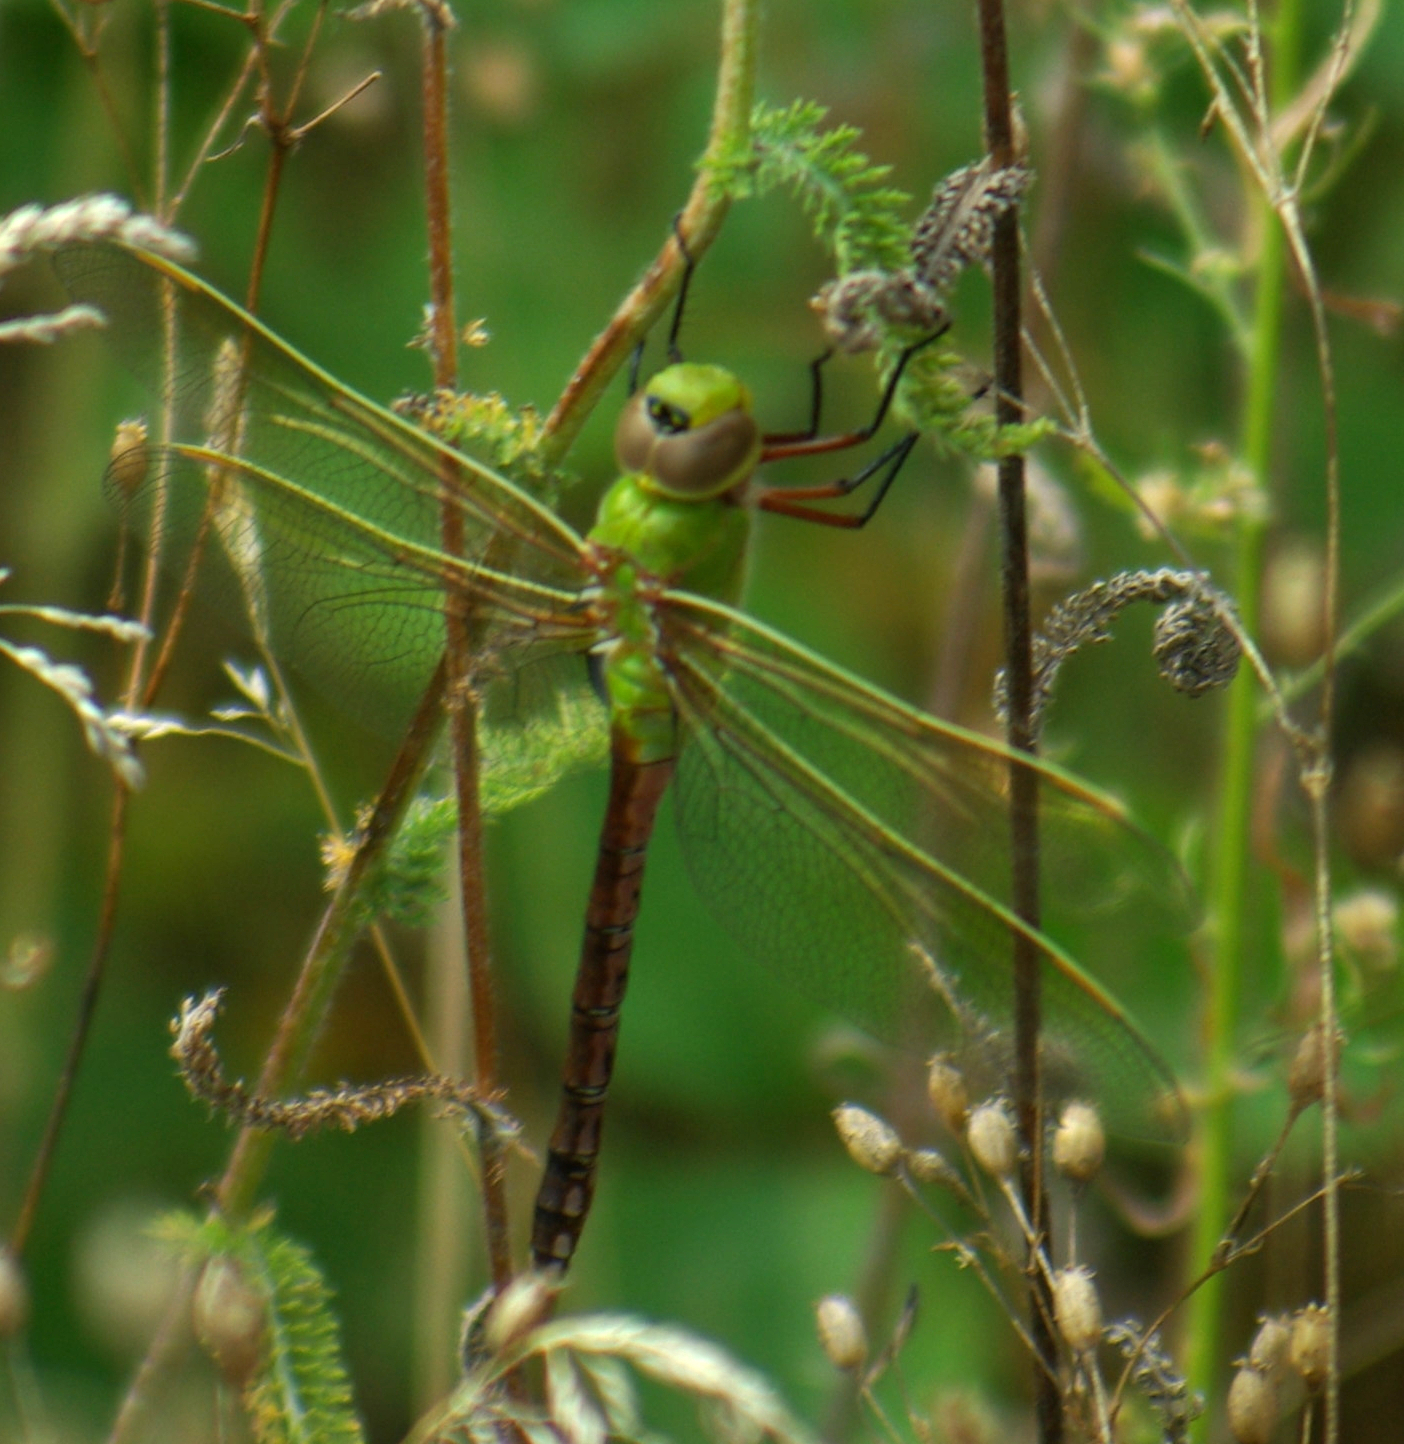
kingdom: Animalia
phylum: Arthropoda
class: Insecta
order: Odonata
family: Aeshnidae
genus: Anax
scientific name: Anax junius
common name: Common green darner
